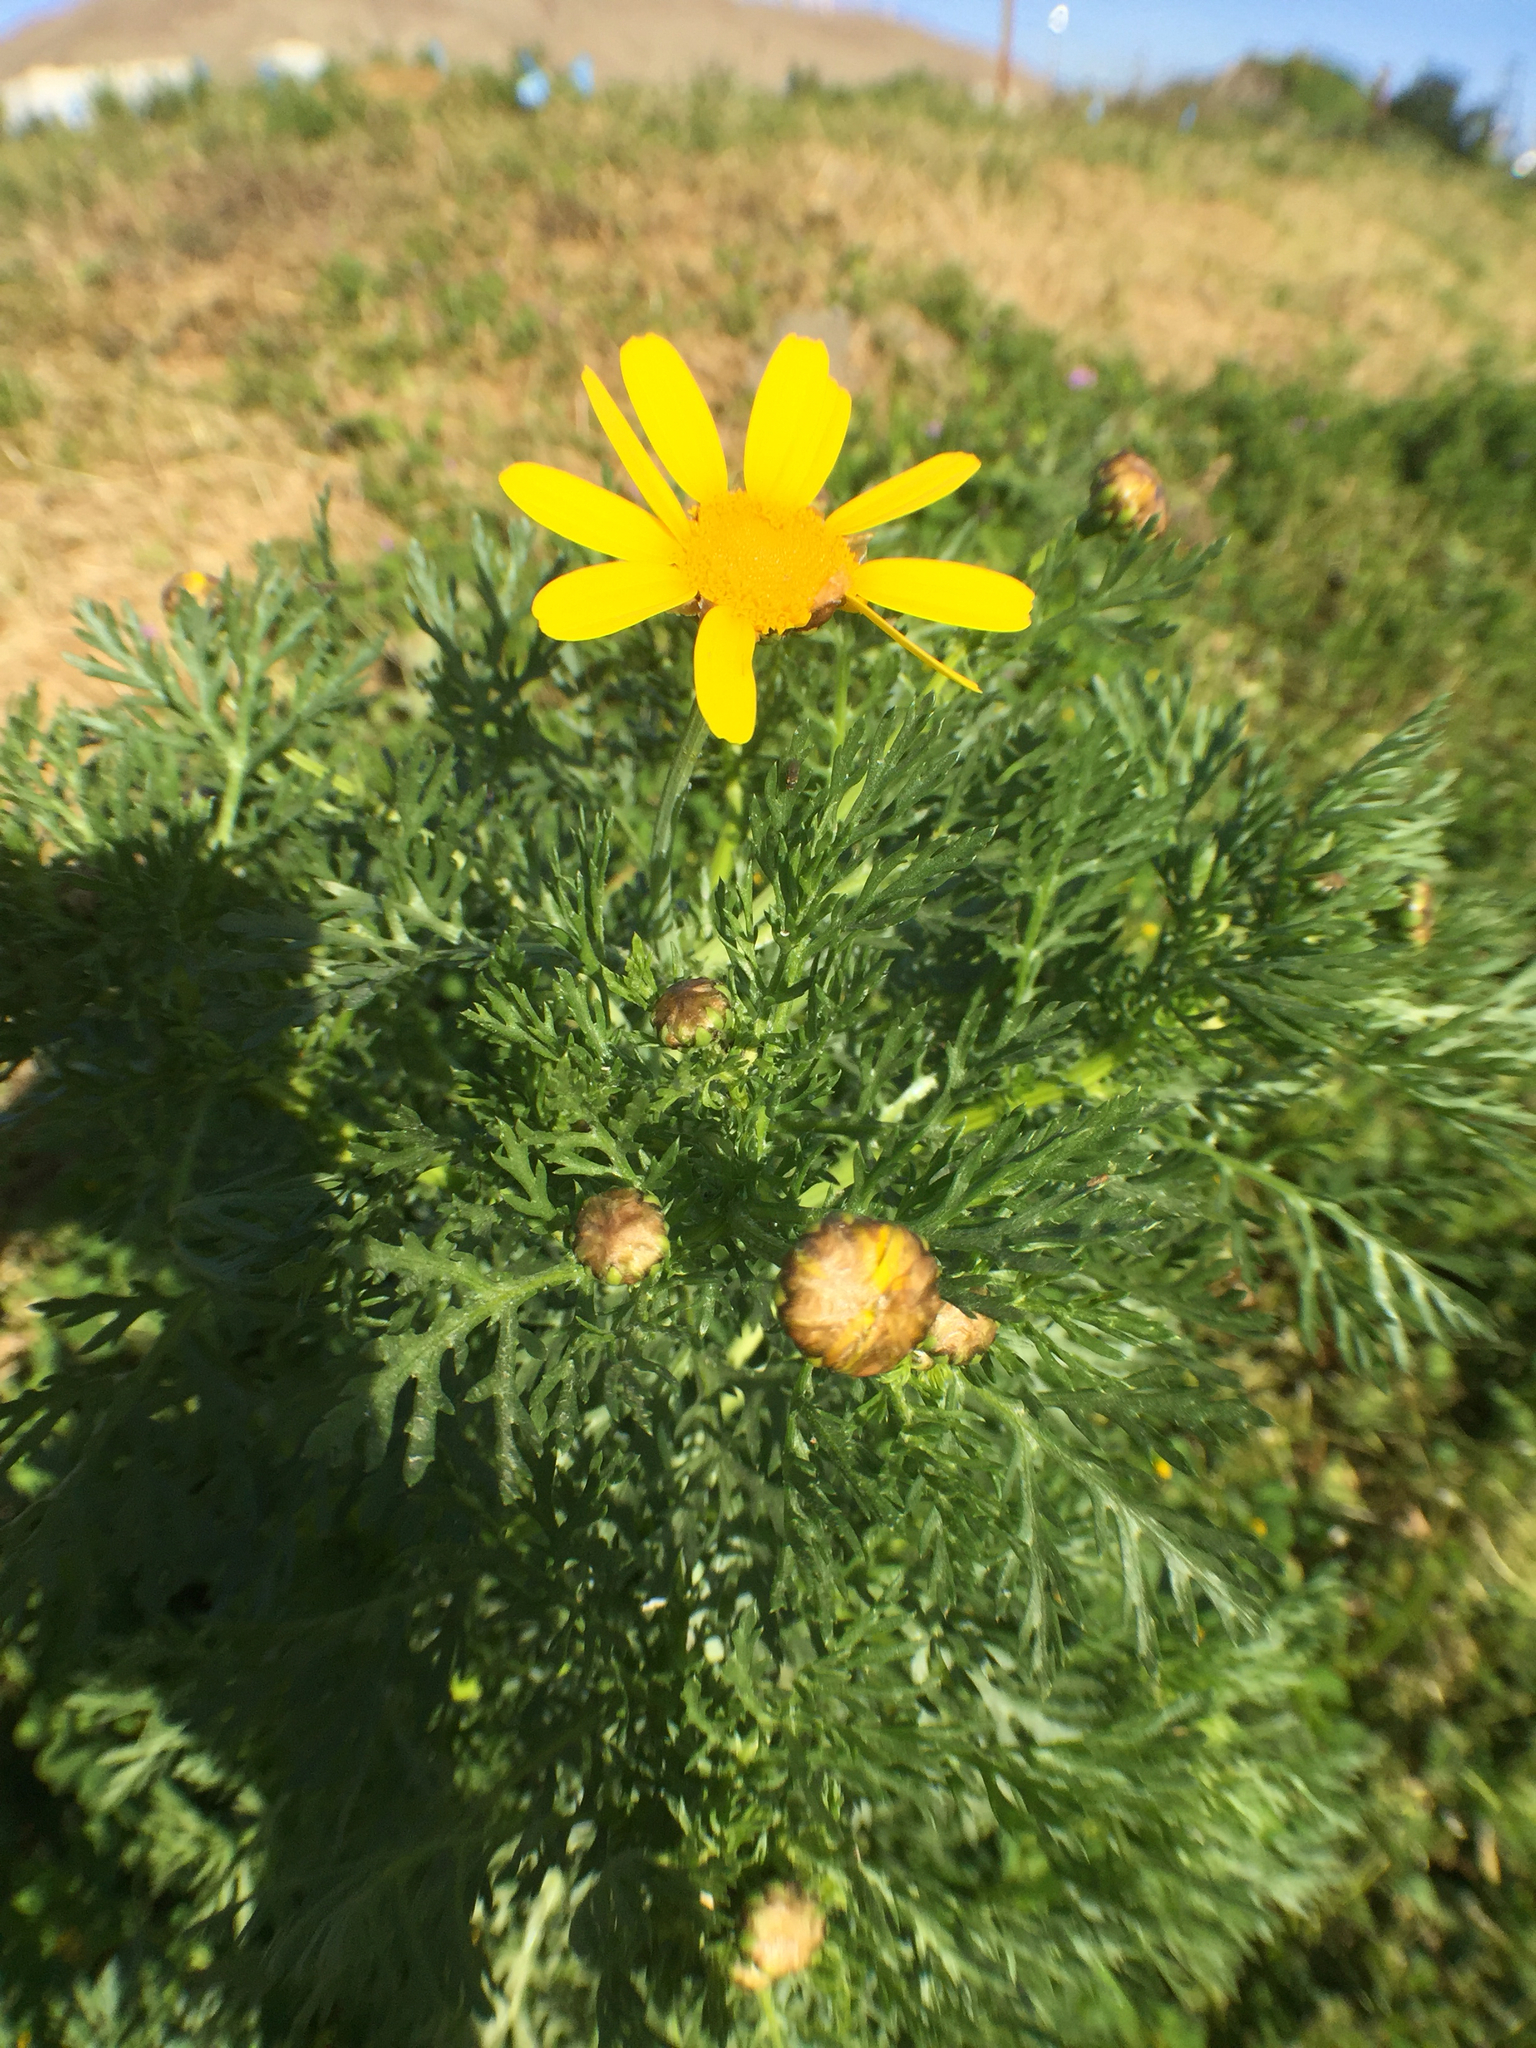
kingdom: Plantae
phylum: Tracheophyta
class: Magnoliopsida
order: Asterales
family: Asteraceae
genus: Glebionis
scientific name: Glebionis coronaria
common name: Crowndaisy
